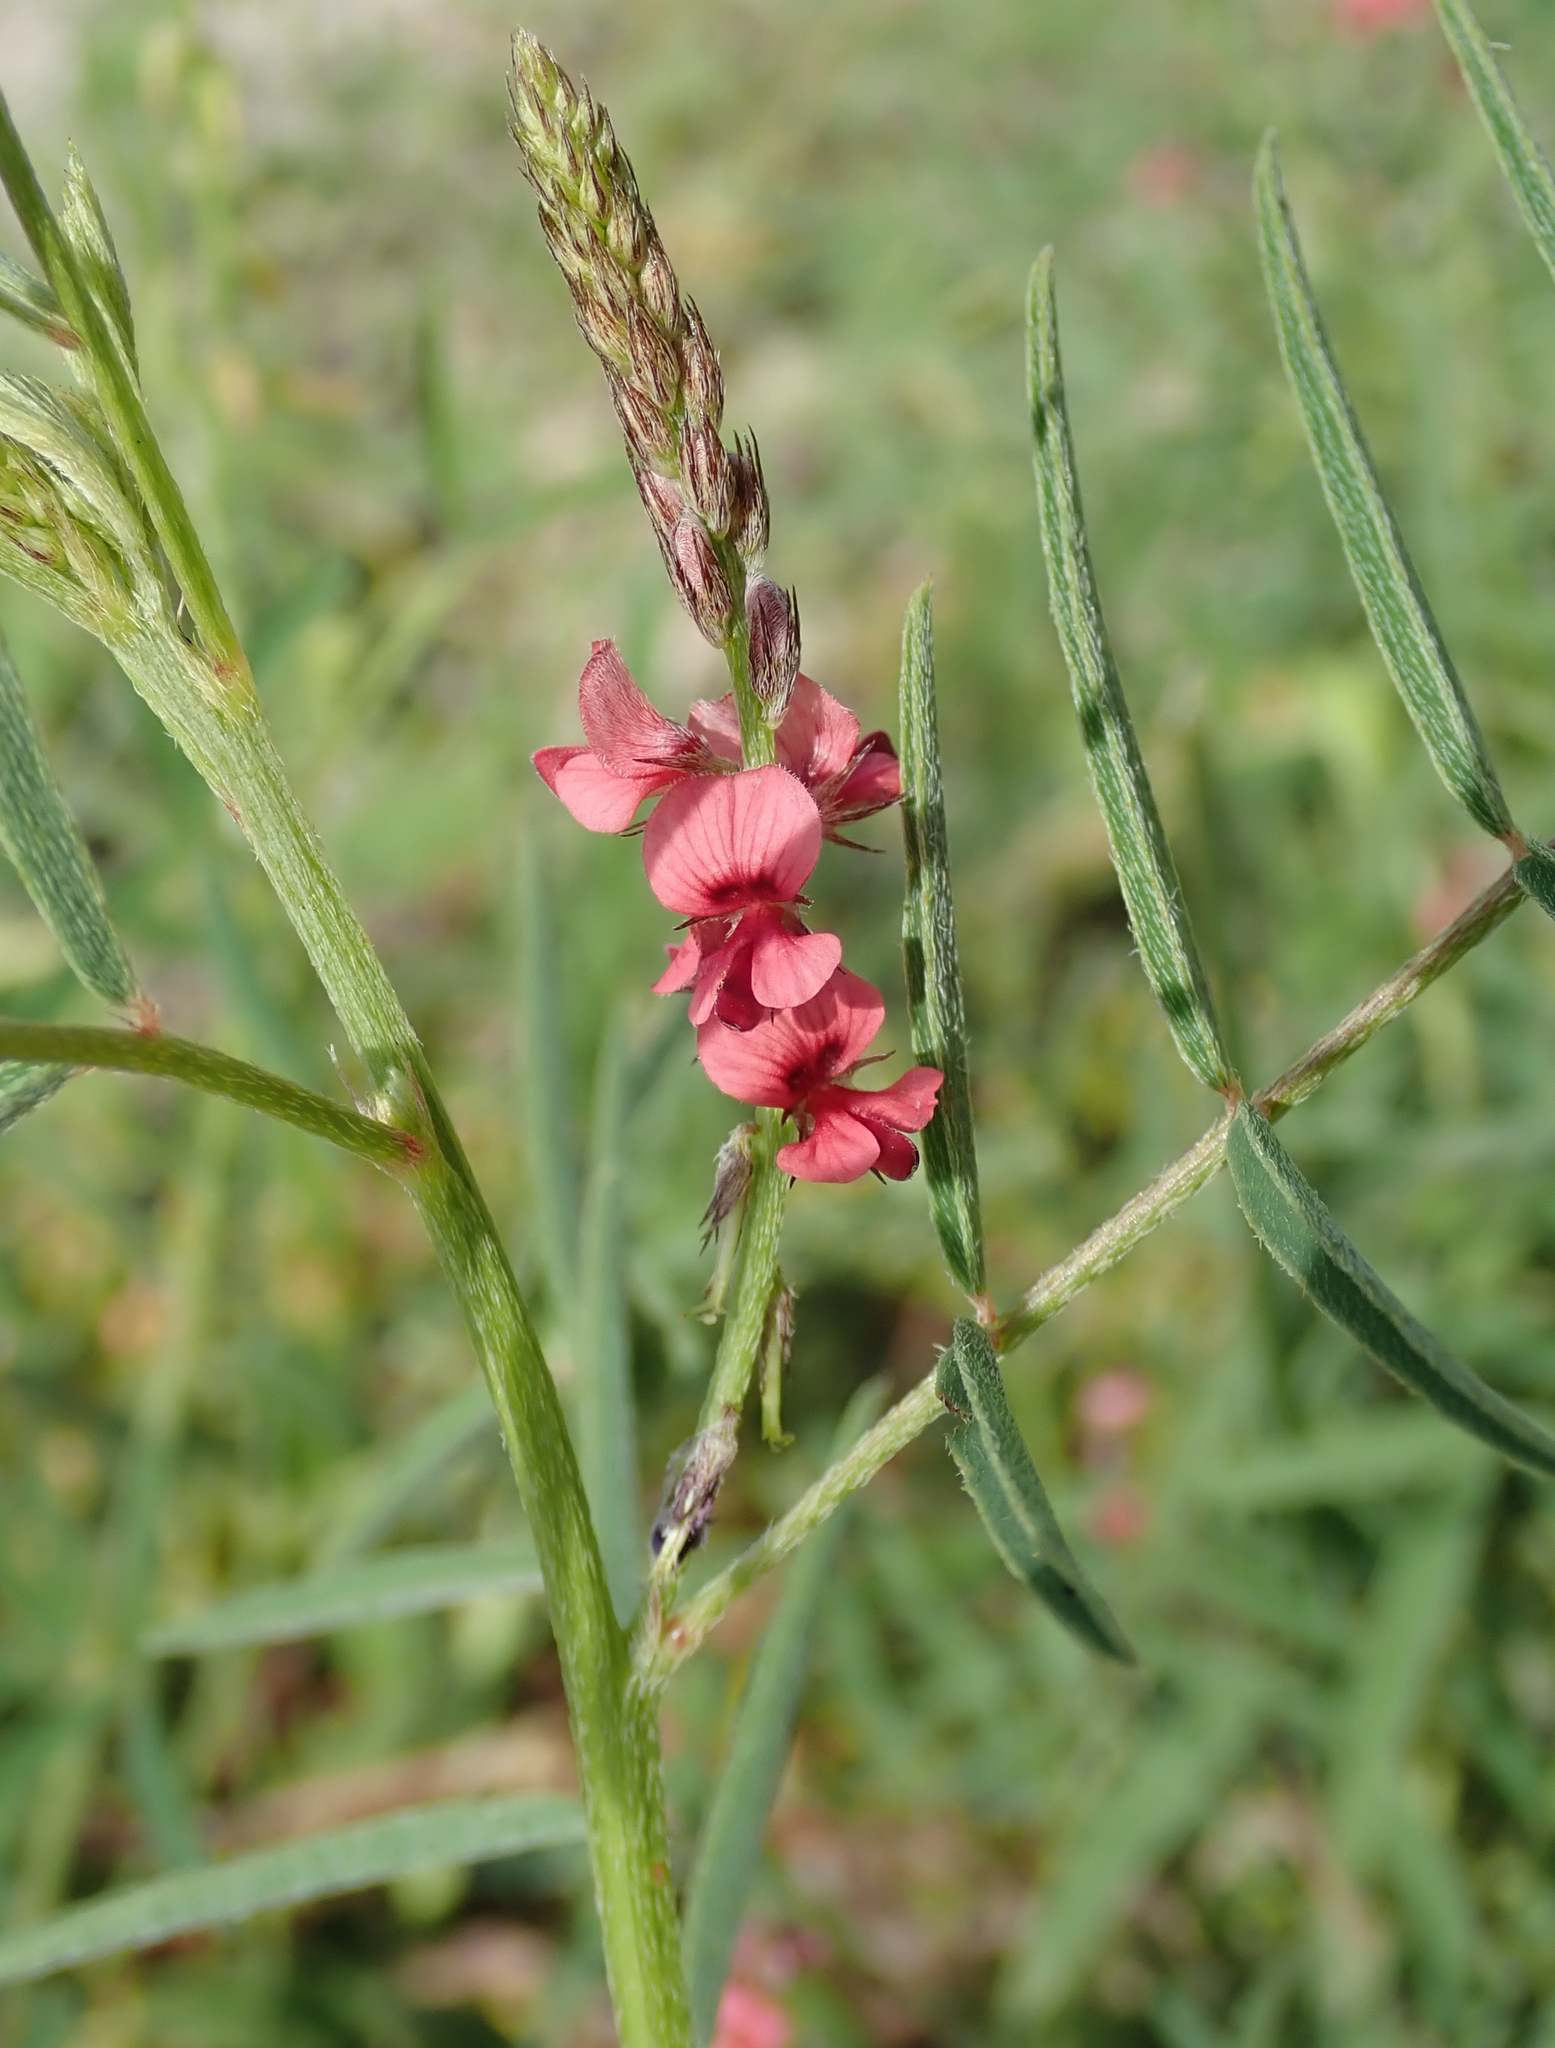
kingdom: Plantae
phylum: Tracheophyta
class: Magnoliopsida
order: Fabales
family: Fabaceae
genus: Indigofera
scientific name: Indigofera charlieriana
